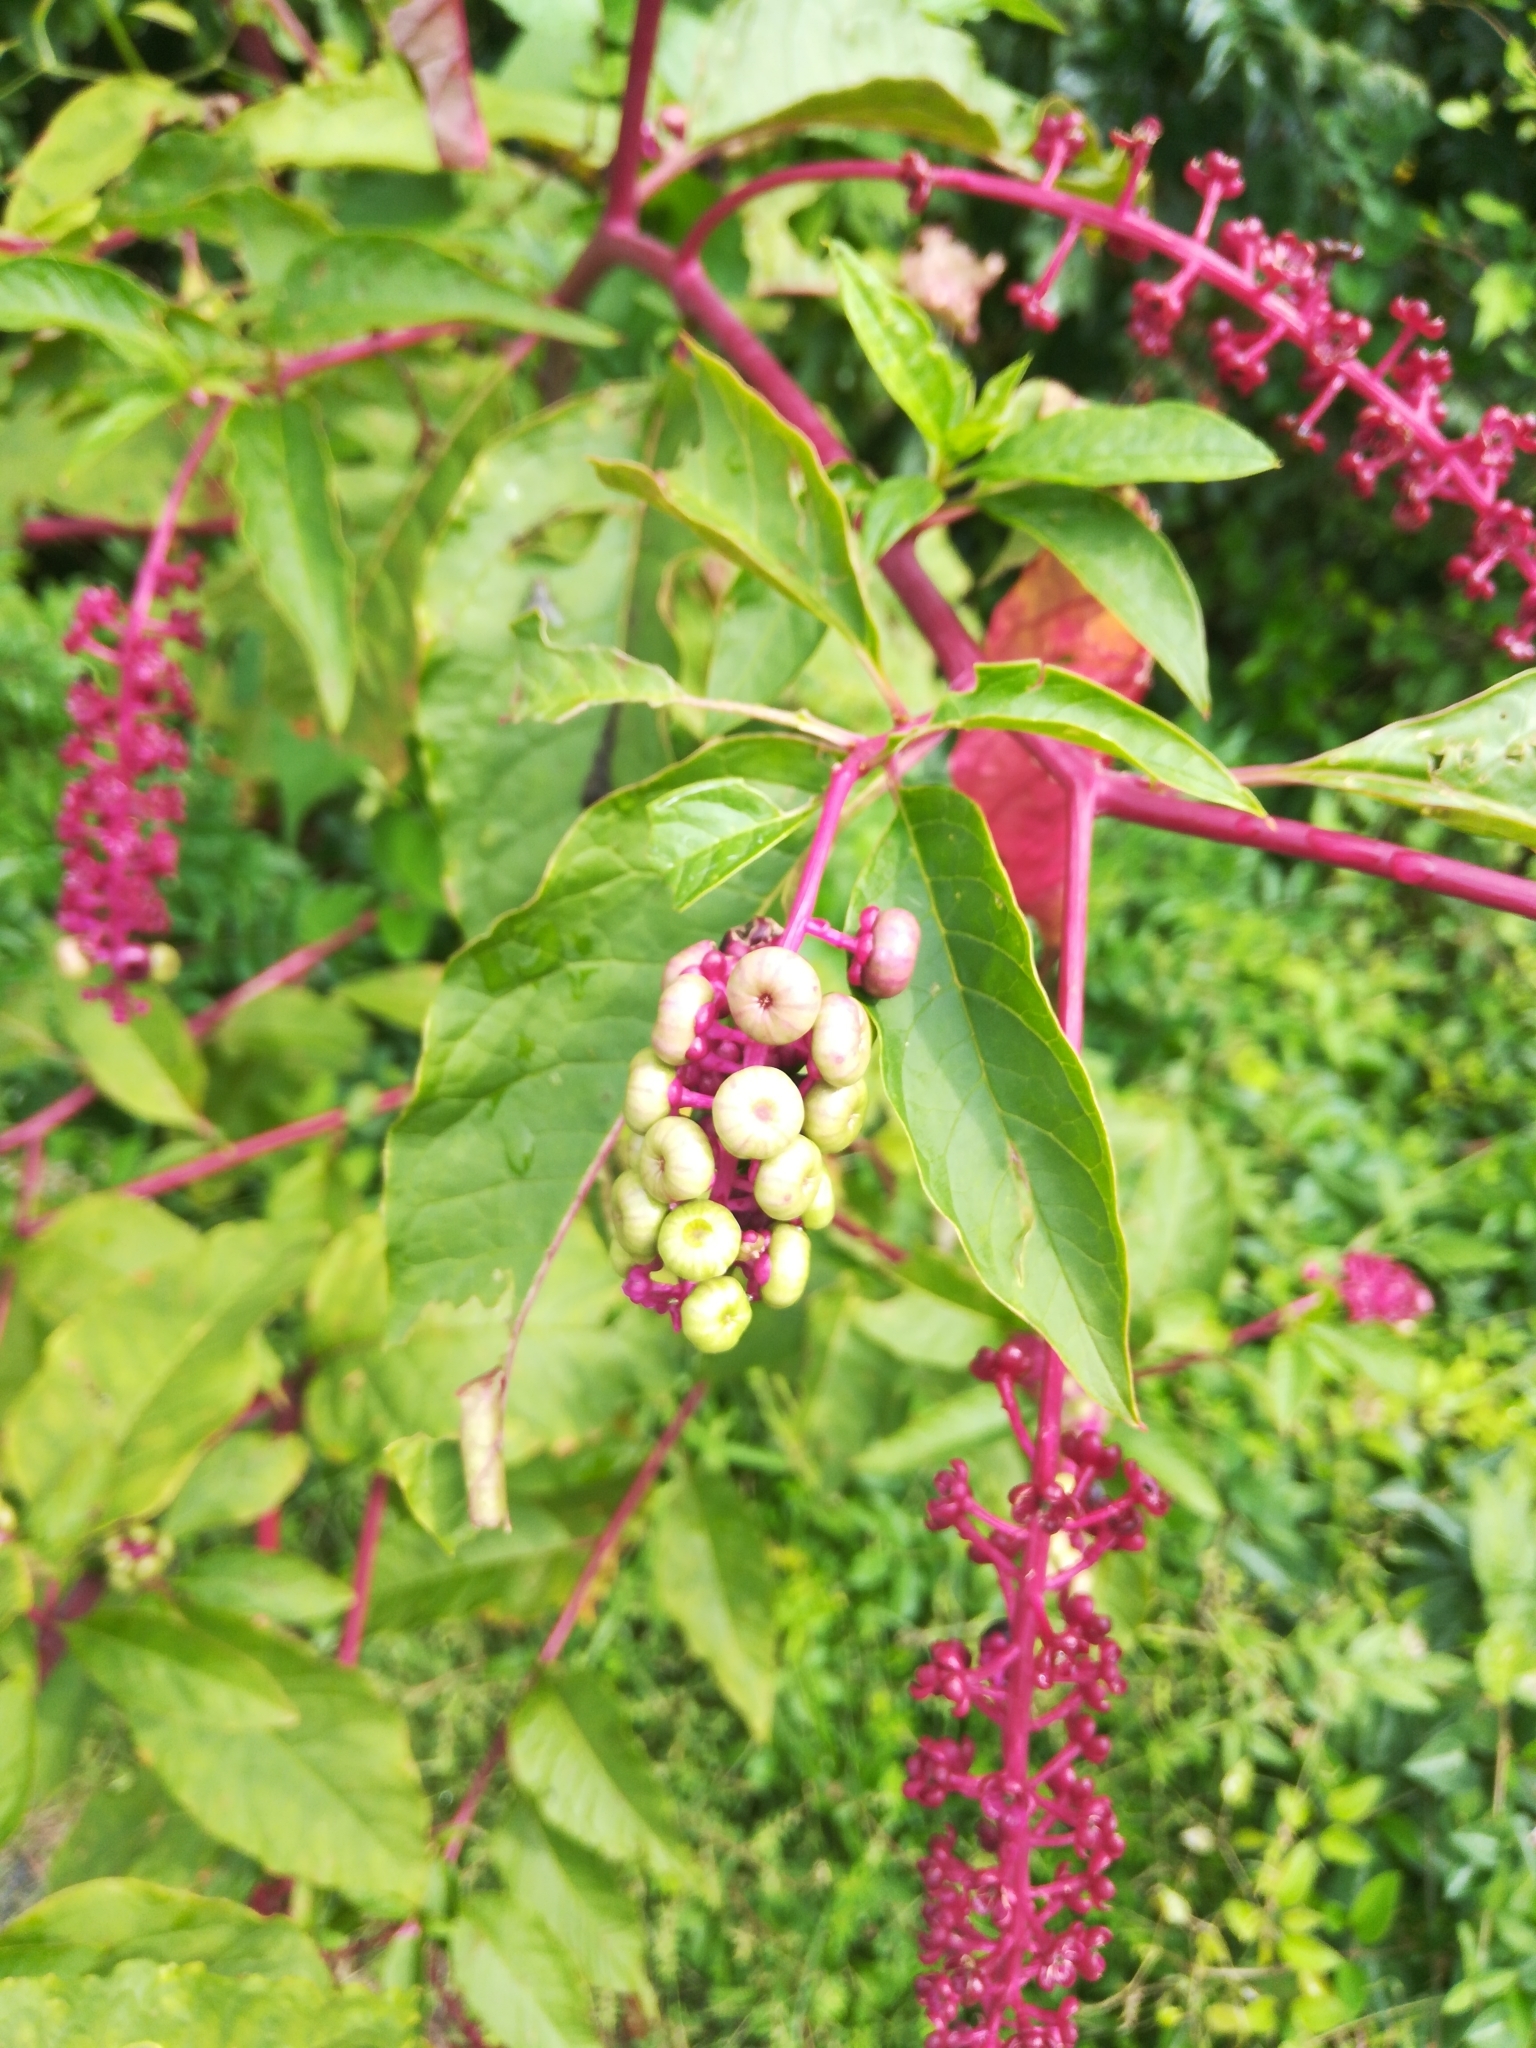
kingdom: Plantae
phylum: Tracheophyta
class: Magnoliopsida
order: Caryophyllales
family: Phytolaccaceae
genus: Phytolacca
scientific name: Phytolacca americana
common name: American pokeweed
